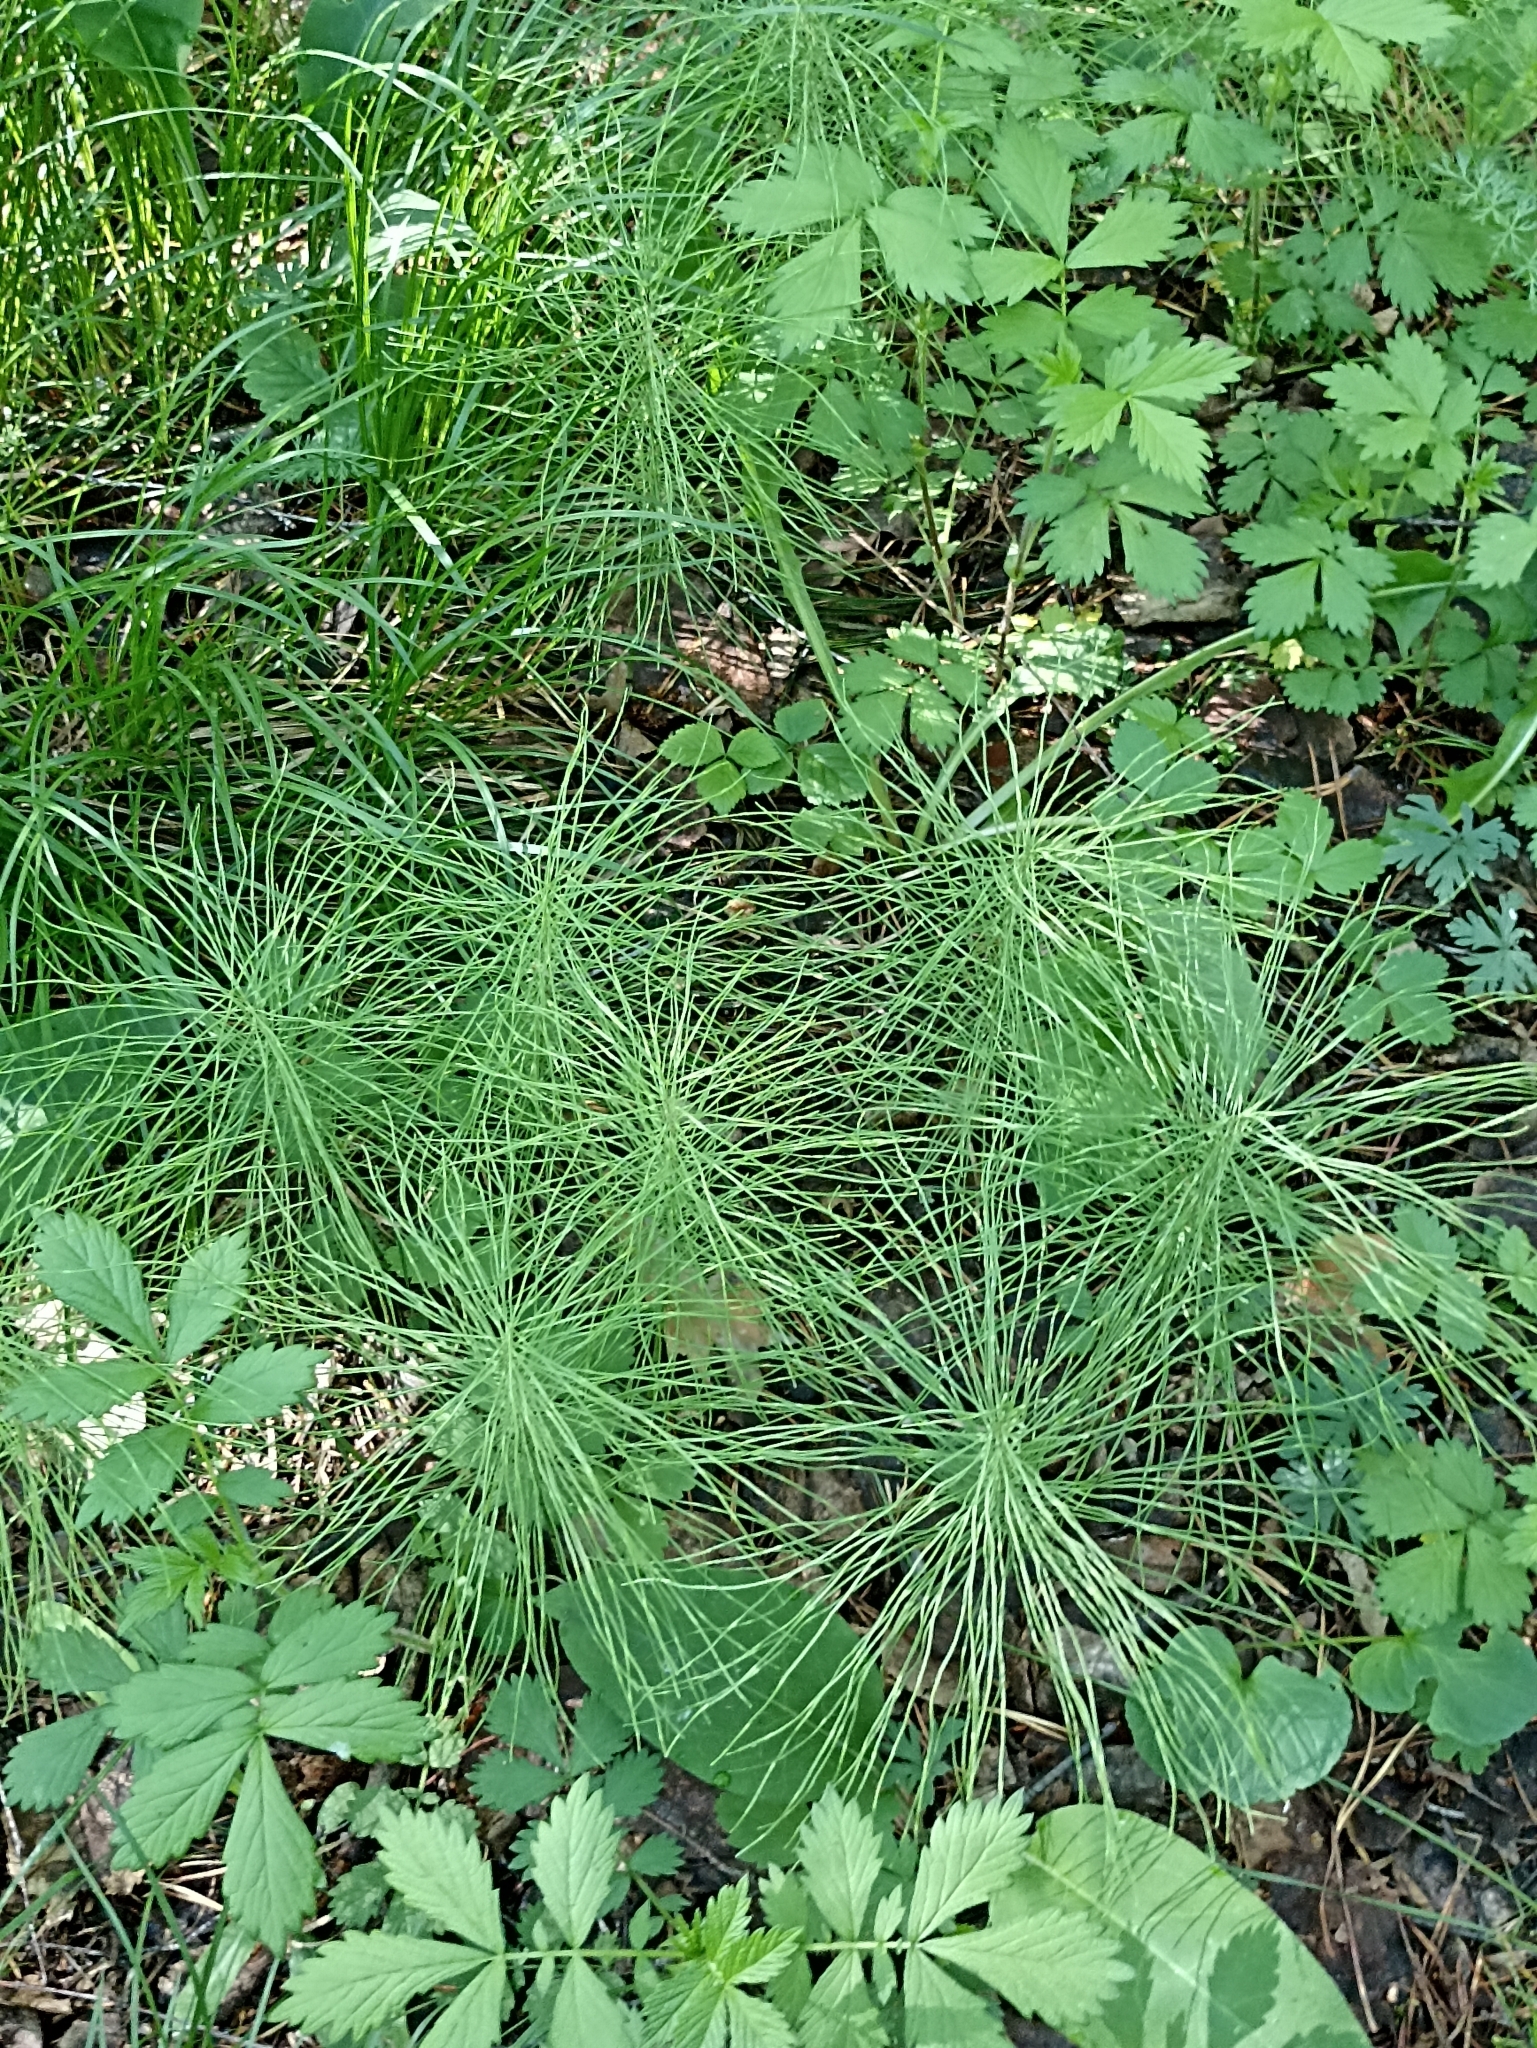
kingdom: Plantae
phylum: Tracheophyta
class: Polypodiopsida
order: Equisetales
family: Equisetaceae
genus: Equisetum
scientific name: Equisetum pratense
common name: Meadow horsetail
